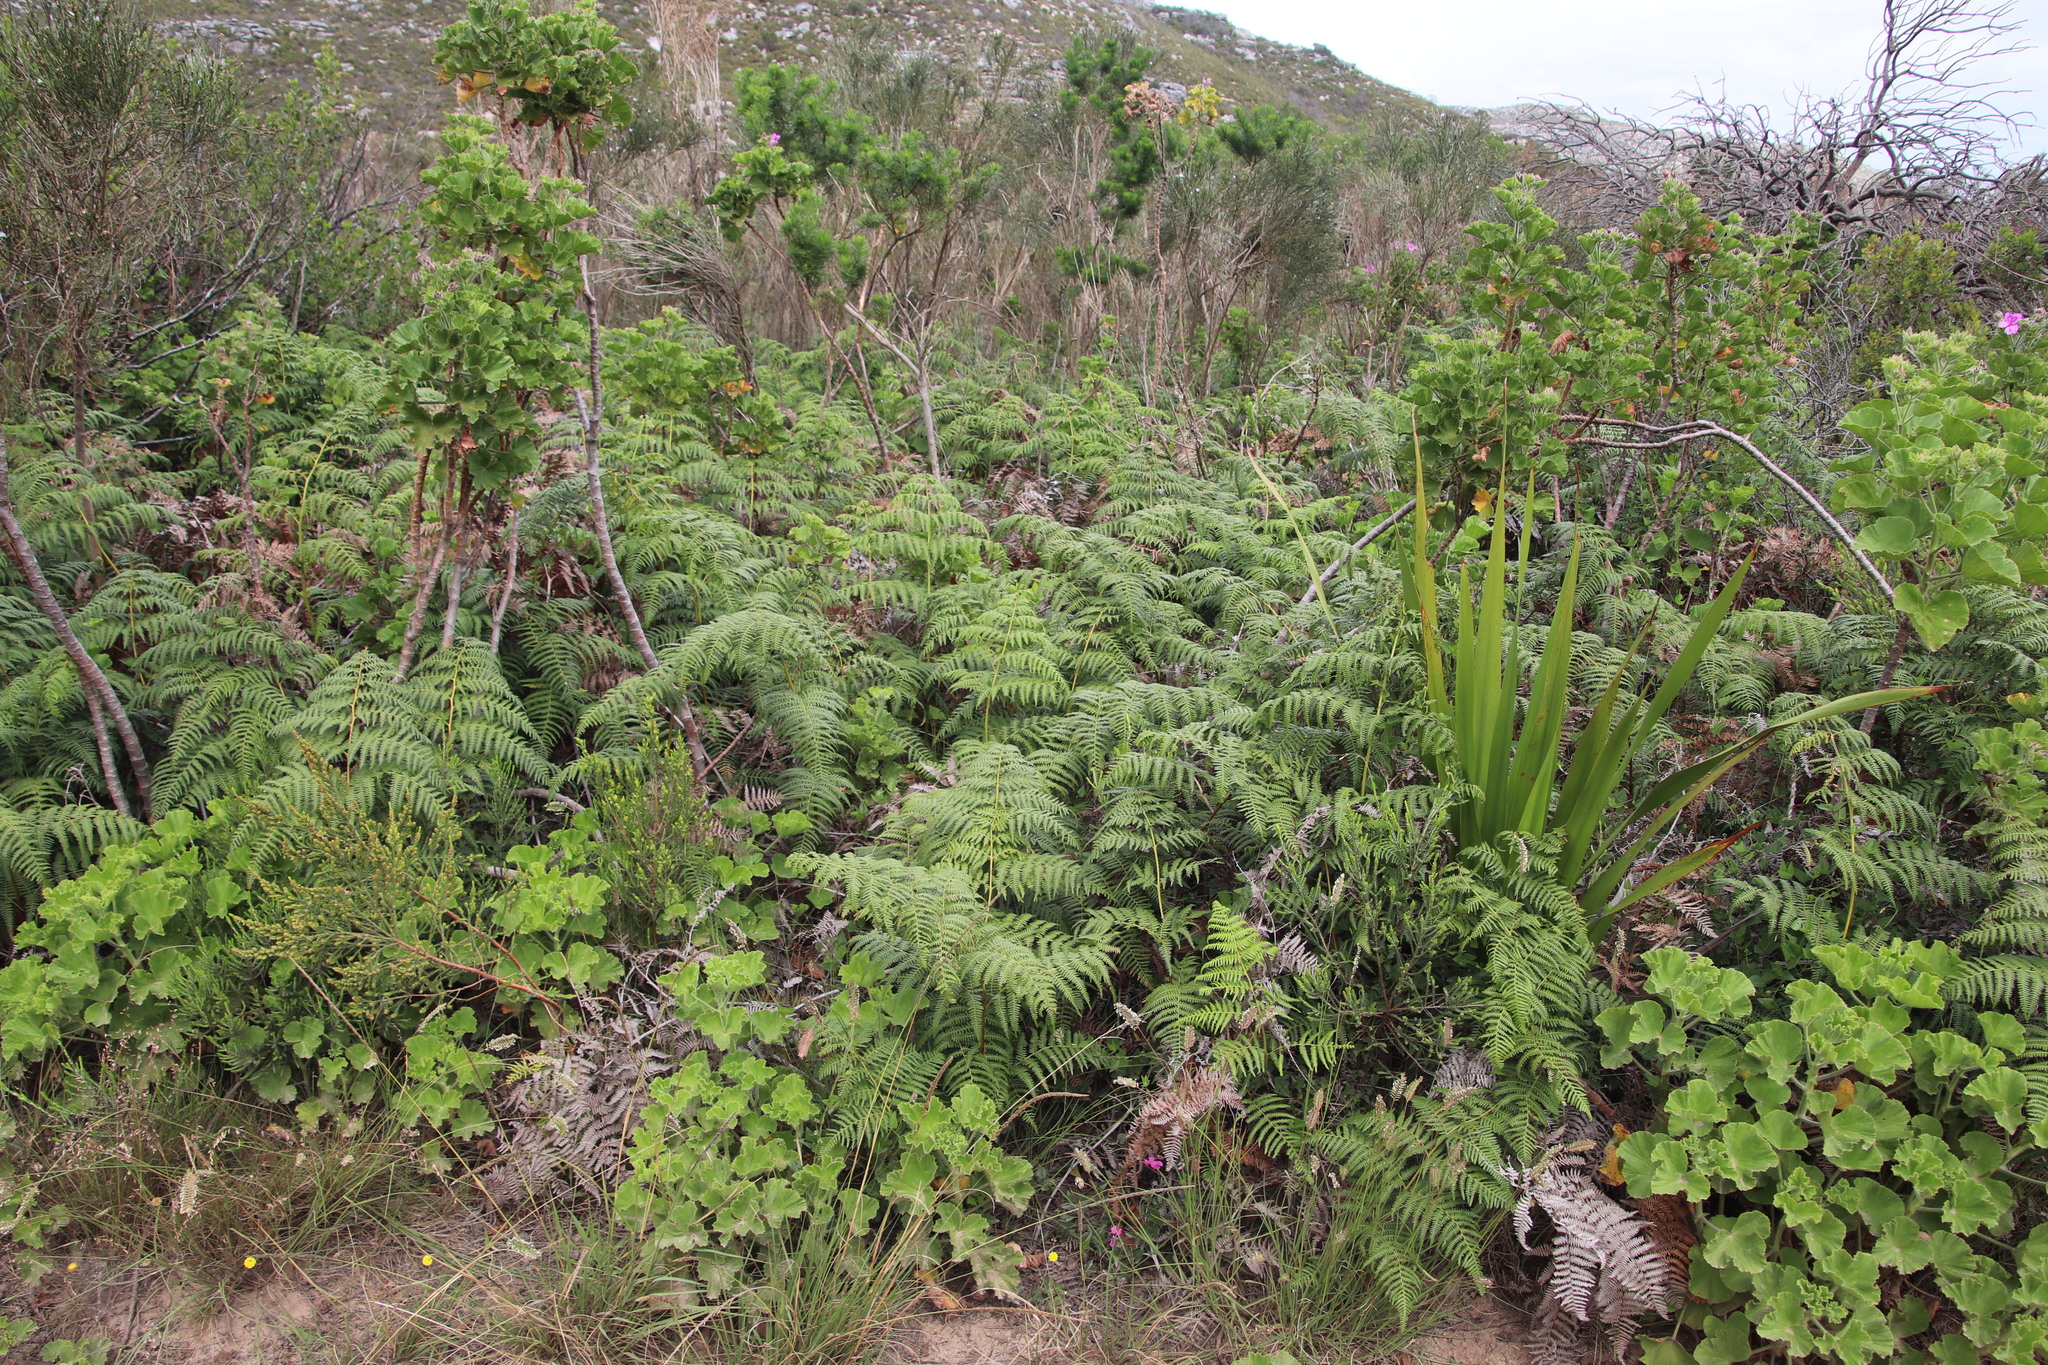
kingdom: Plantae
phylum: Tracheophyta
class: Polypodiopsida
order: Polypodiales
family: Dennstaedtiaceae
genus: Pteridium
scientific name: Pteridium aquilinum
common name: Bracken
